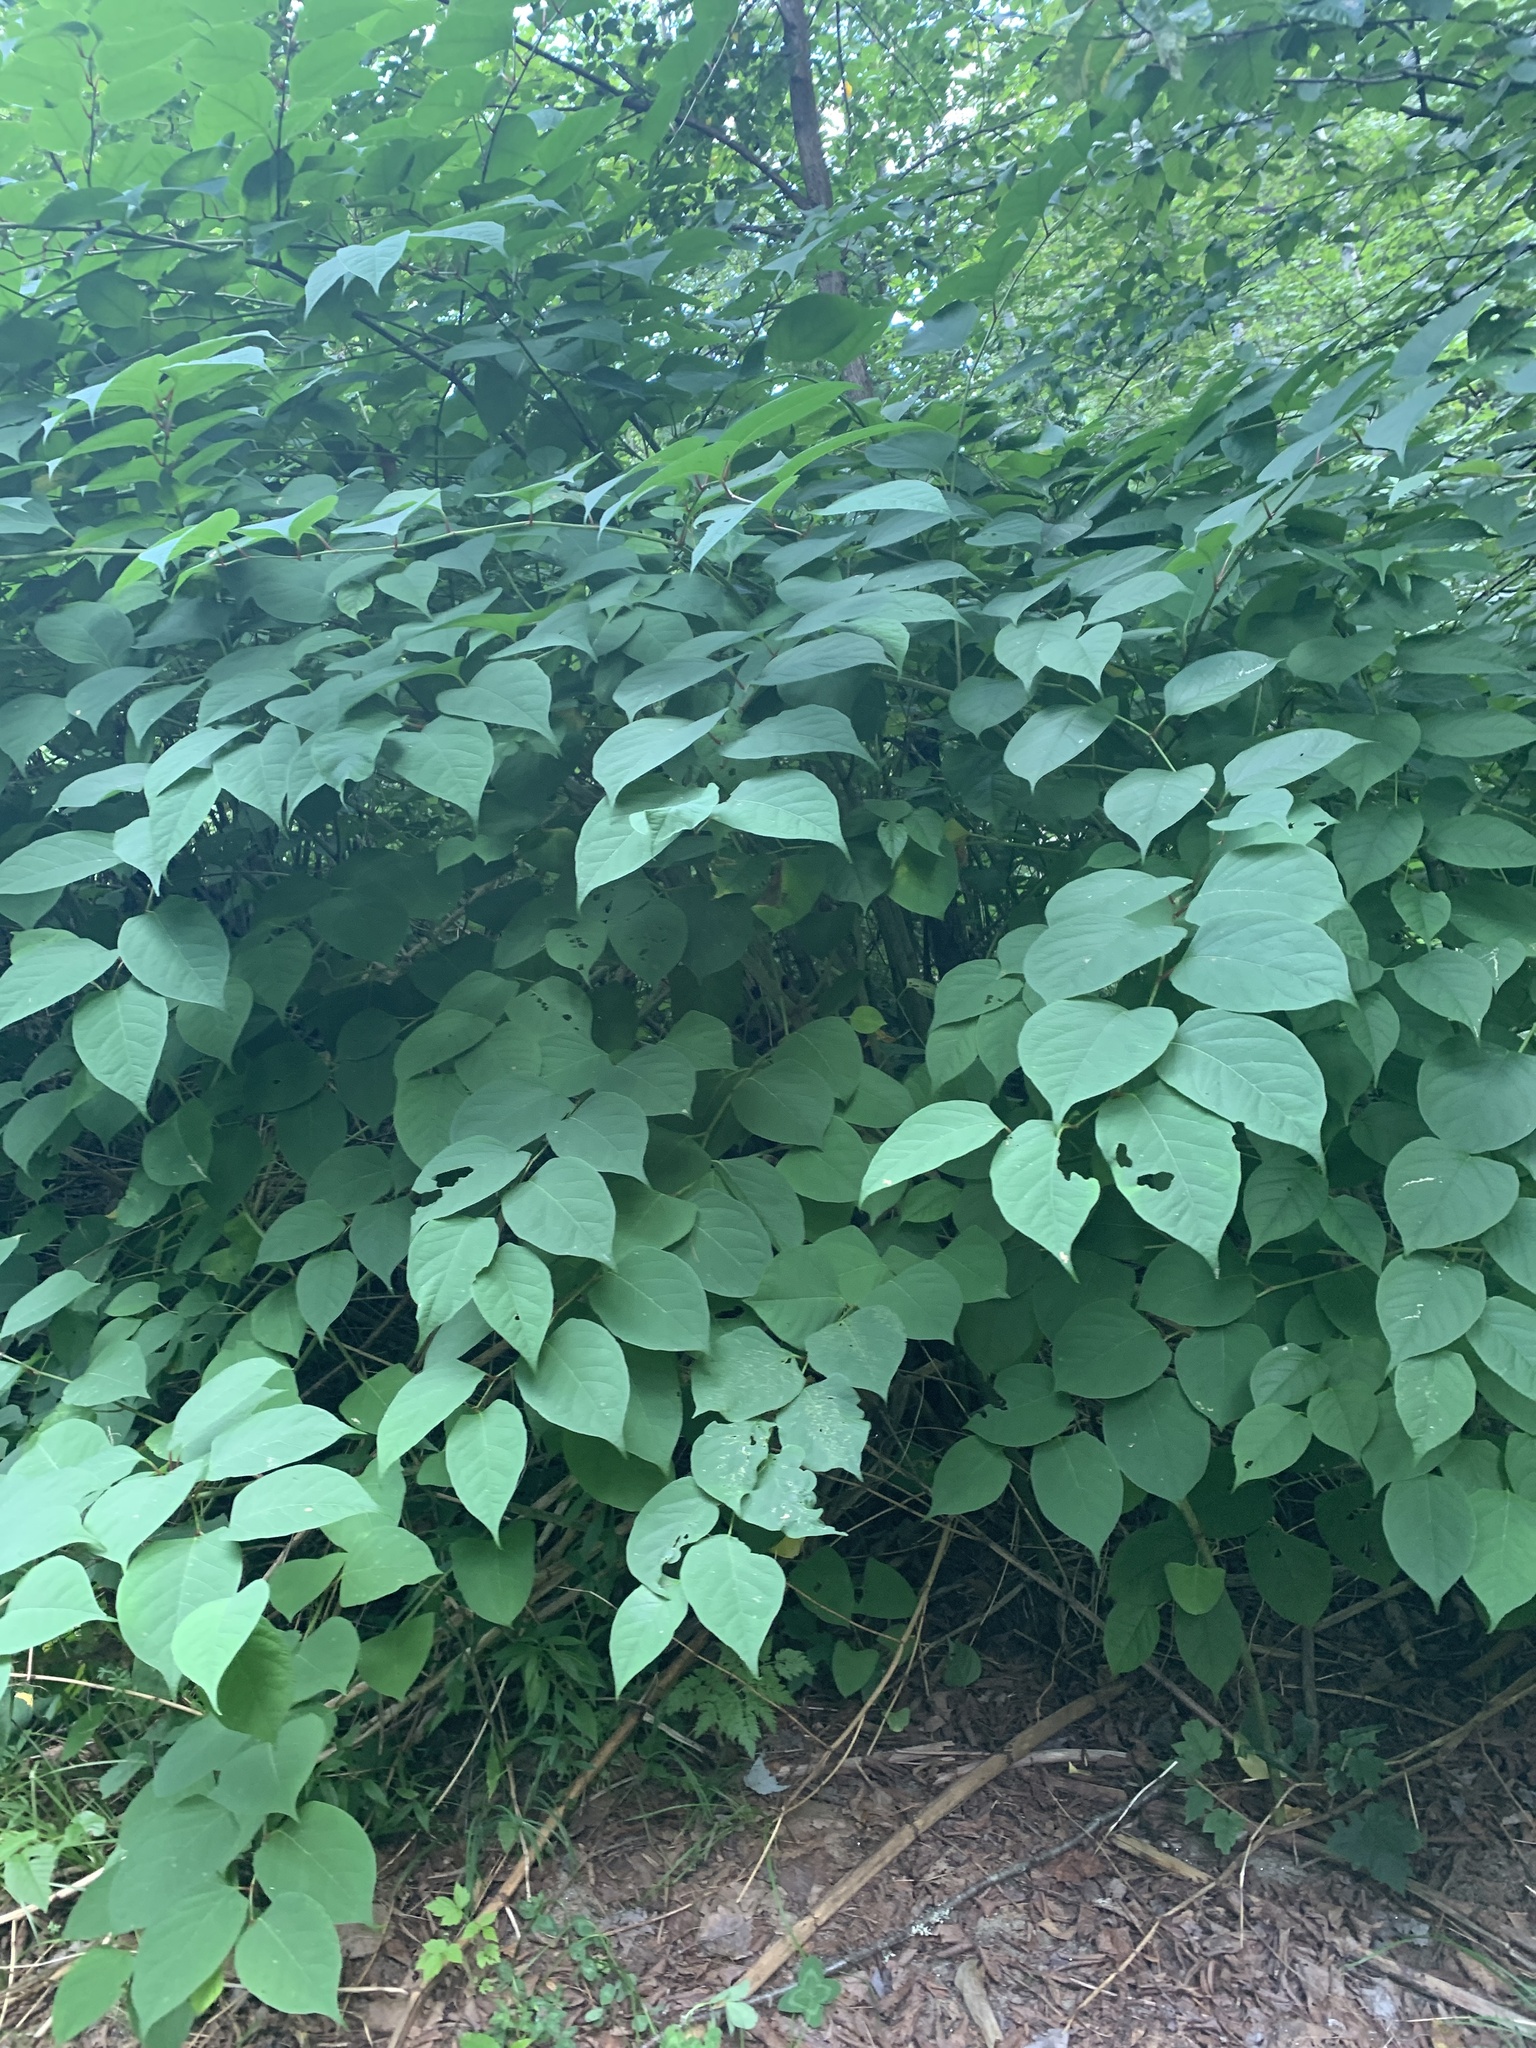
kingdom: Plantae
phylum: Tracheophyta
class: Magnoliopsida
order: Caryophyllales
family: Polygonaceae
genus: Reynoutria
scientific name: Reynoutria japonica
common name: Japanese knotweed
